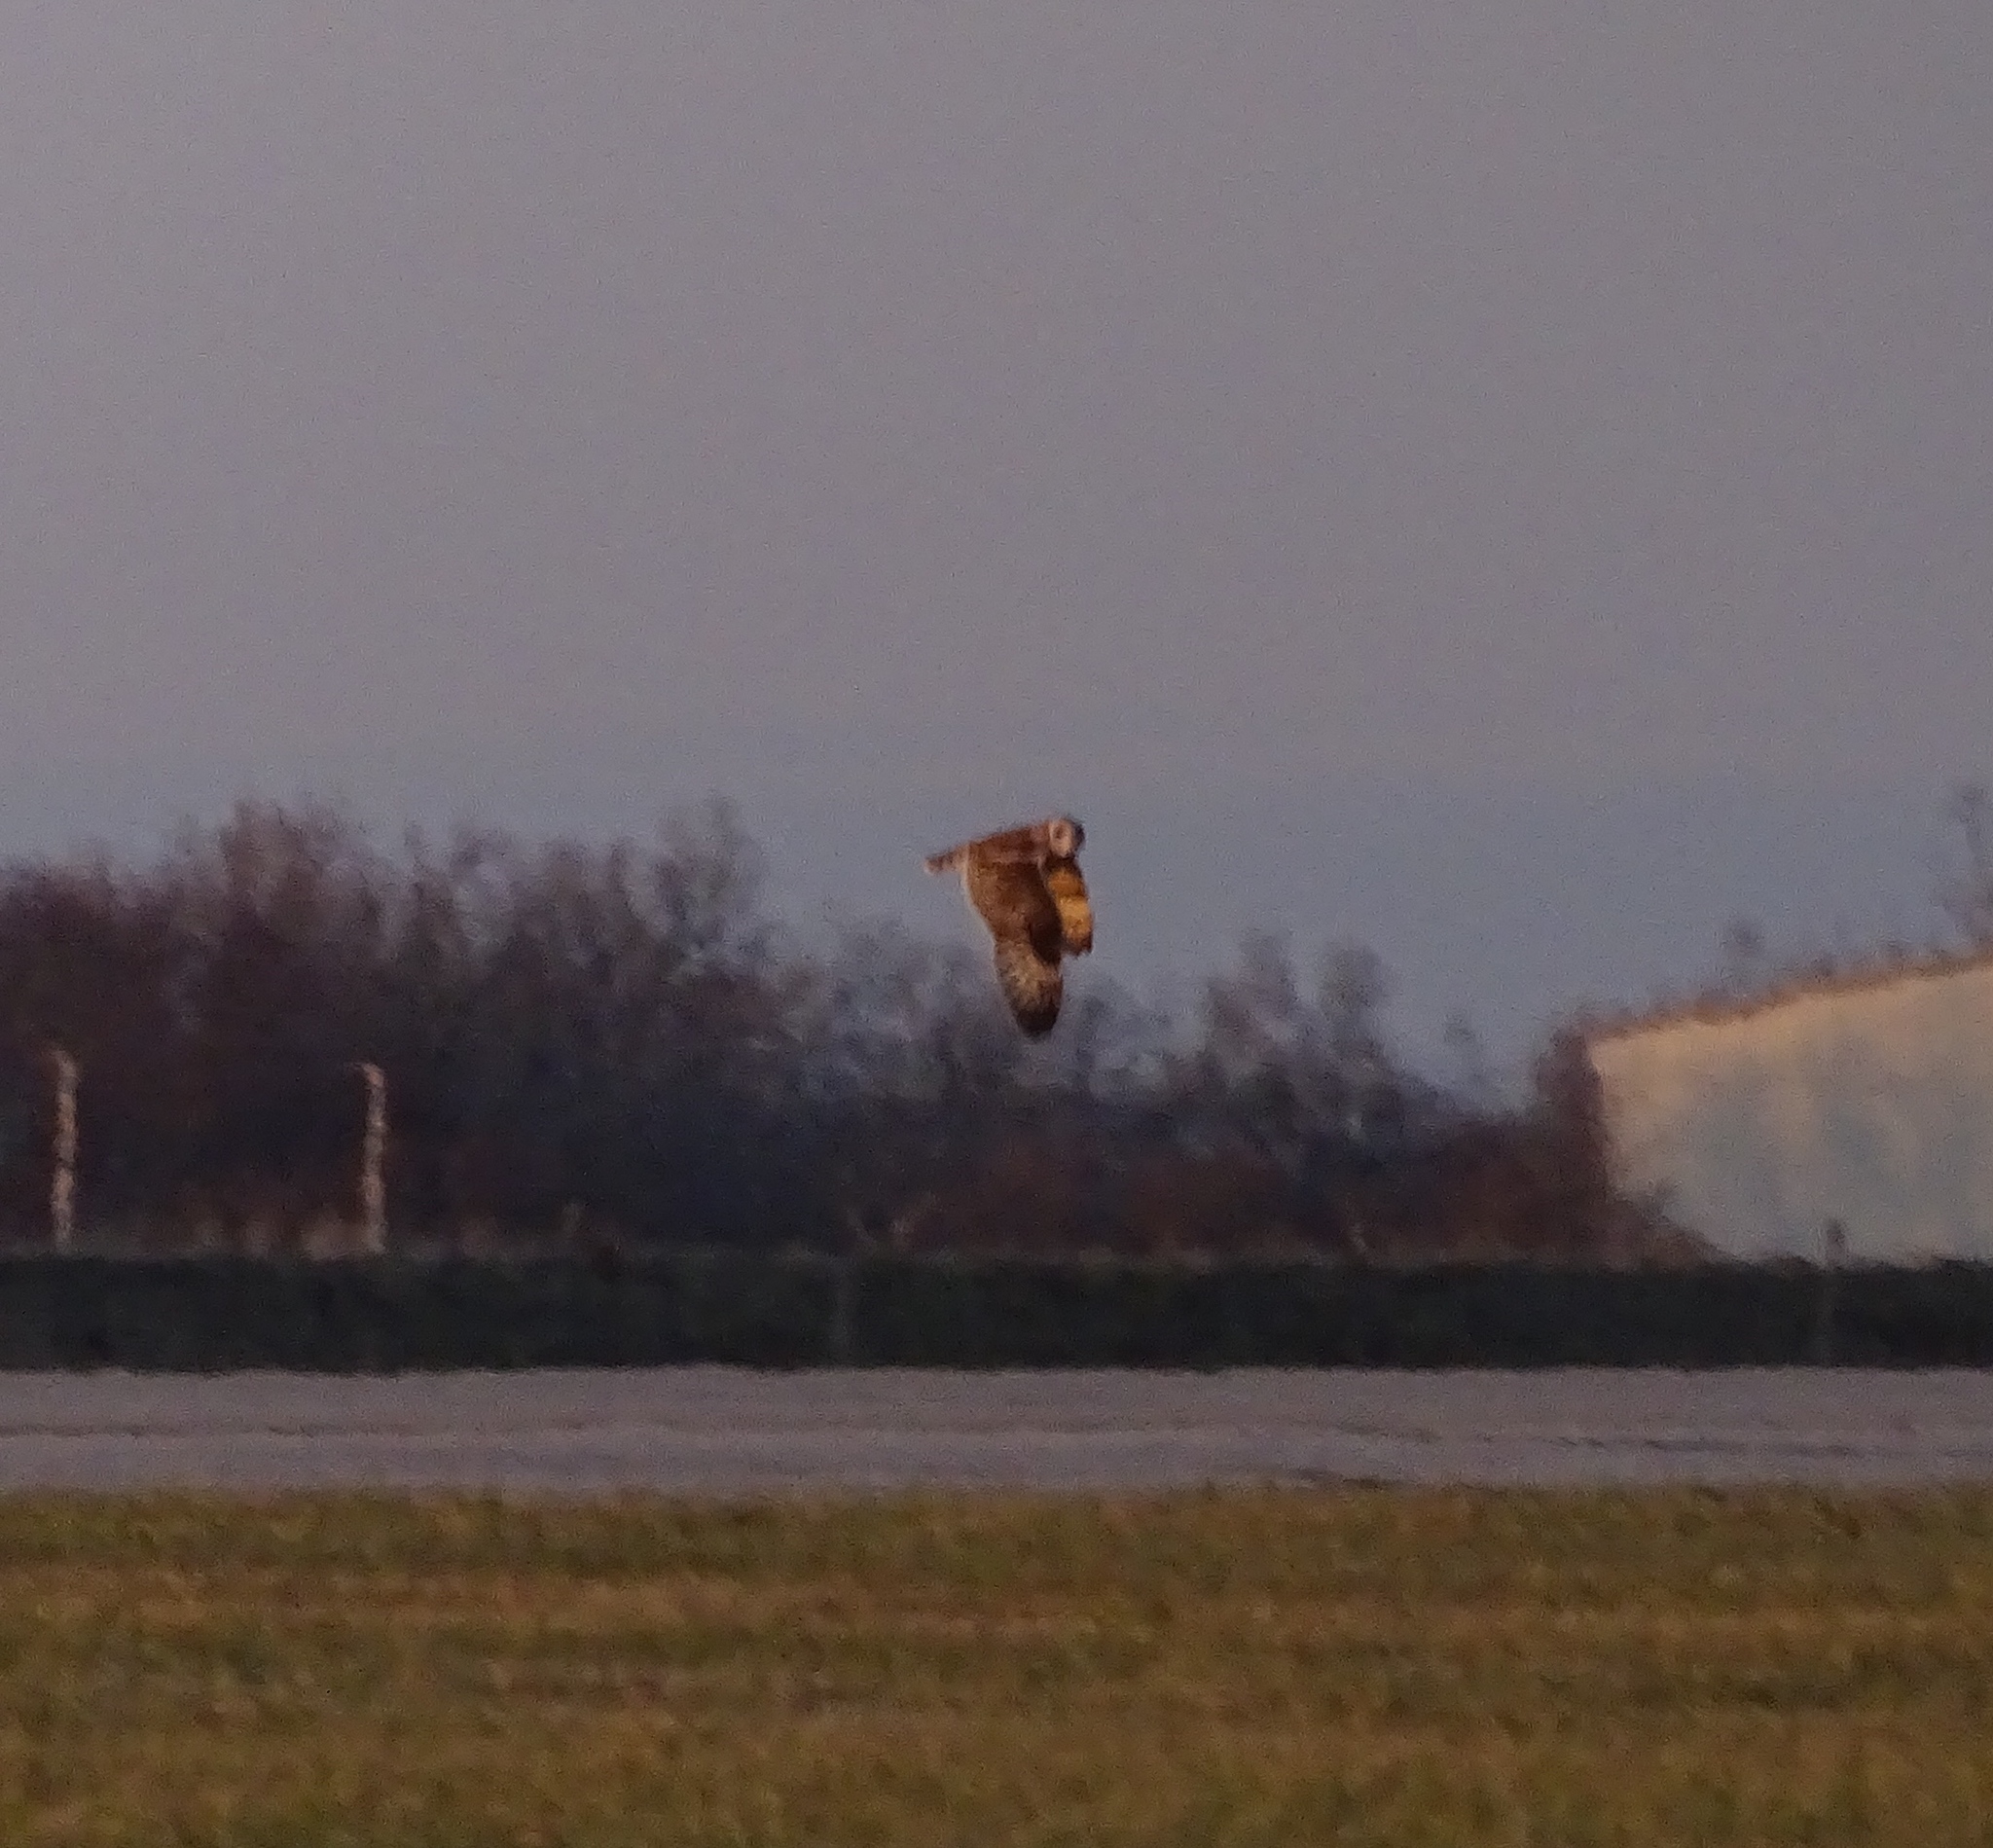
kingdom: Animalia
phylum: Chordata
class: Aves
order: Strigiformes
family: Strigidae
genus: Asio
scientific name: Asio flammeus
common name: Short-eared owl
